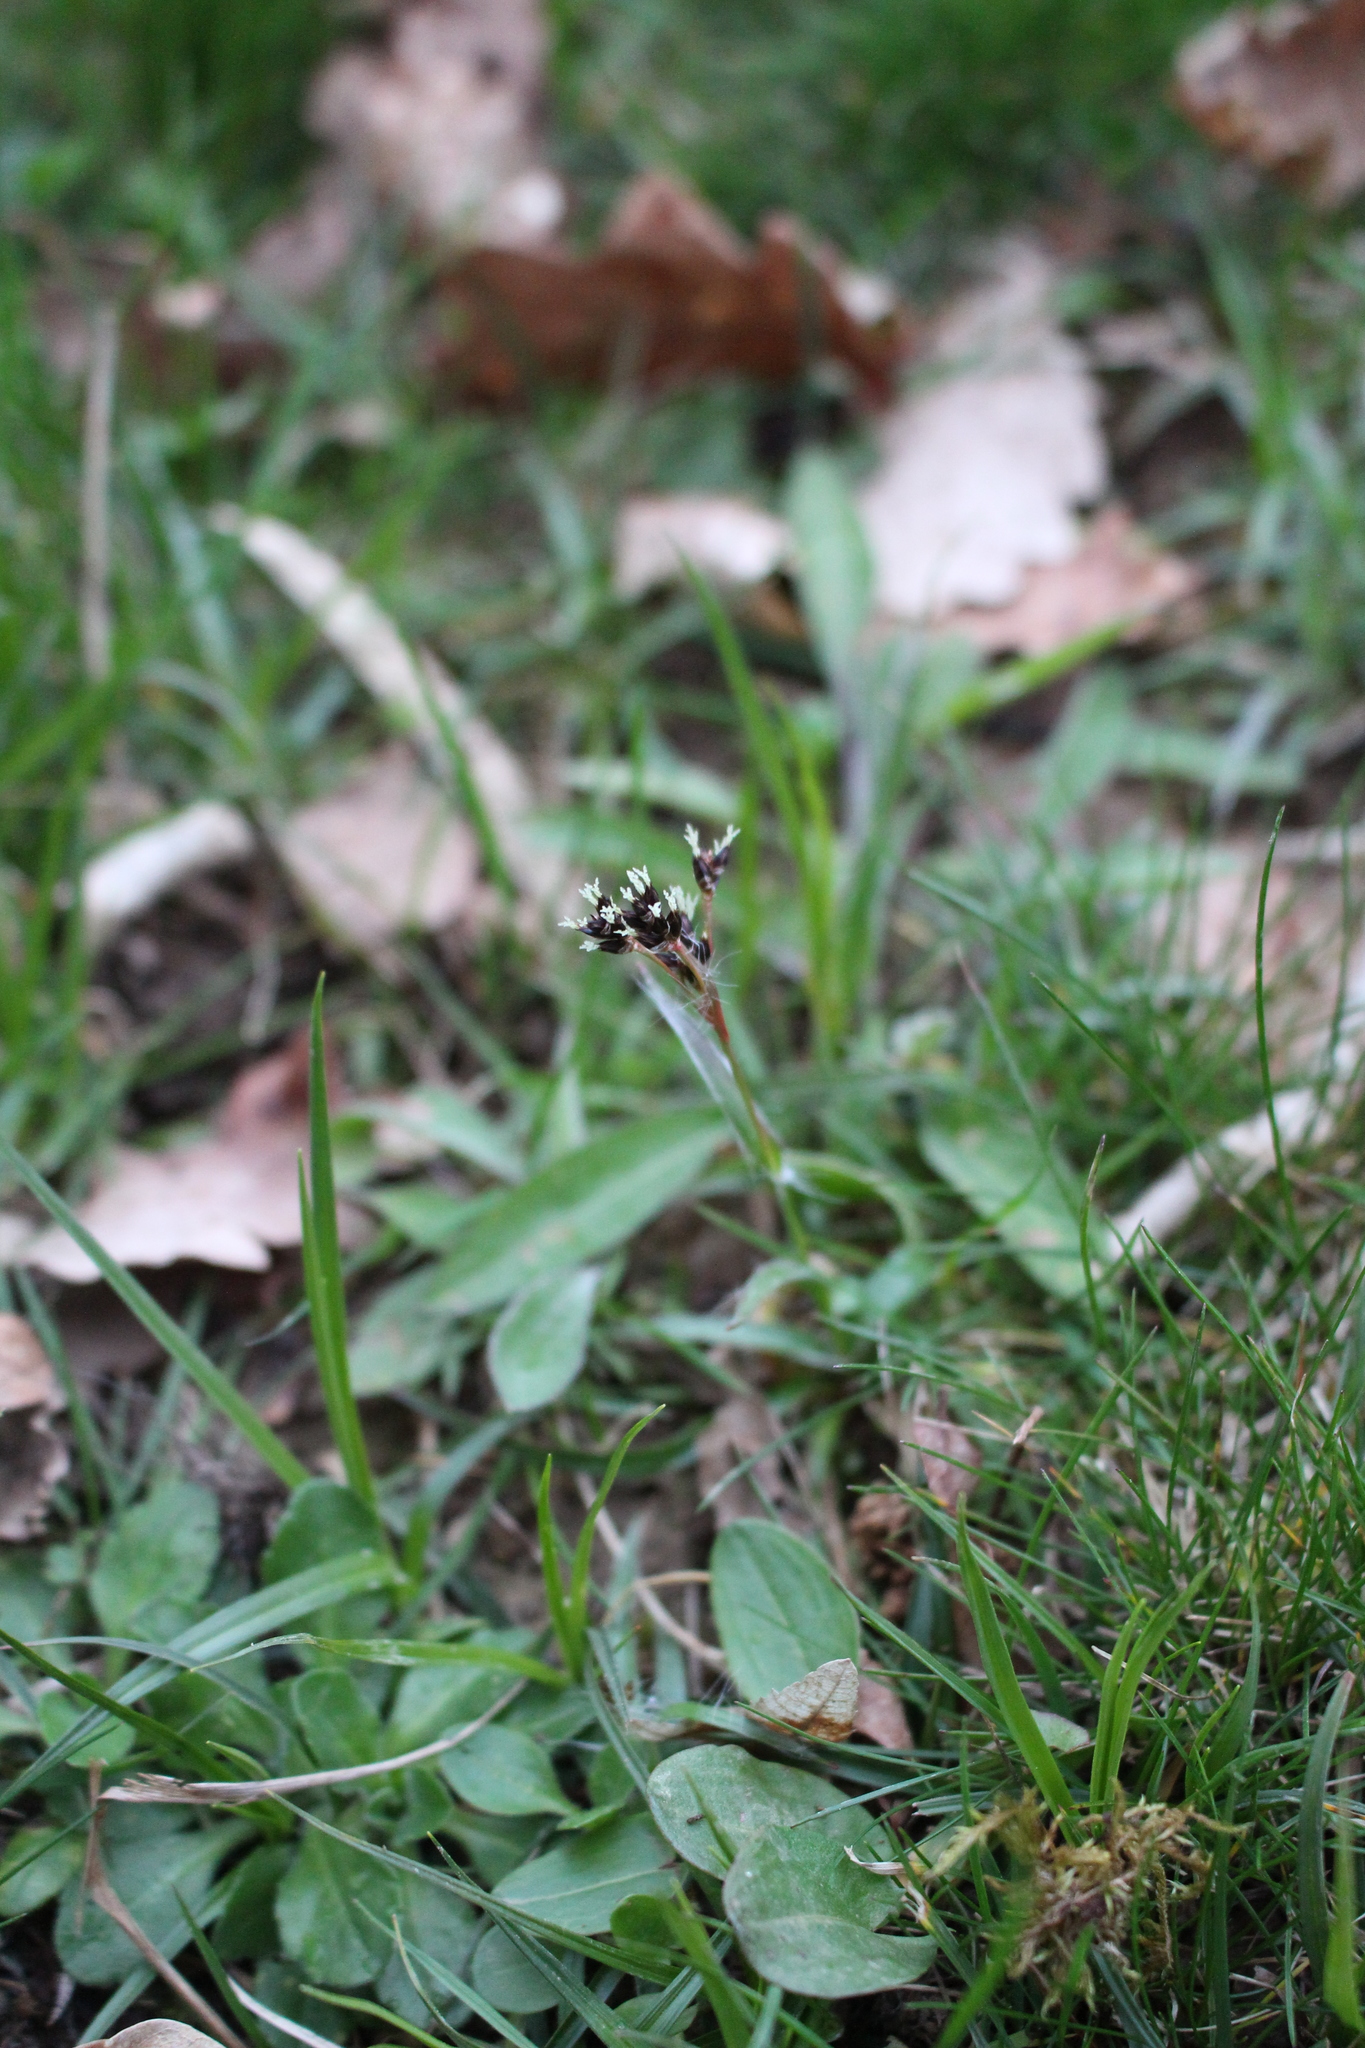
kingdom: Plantae
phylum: Tracheophyta
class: Liliopsida
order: Poales
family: Juncaceae
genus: Luzula
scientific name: Luzula campestris
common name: Field wood-rush
